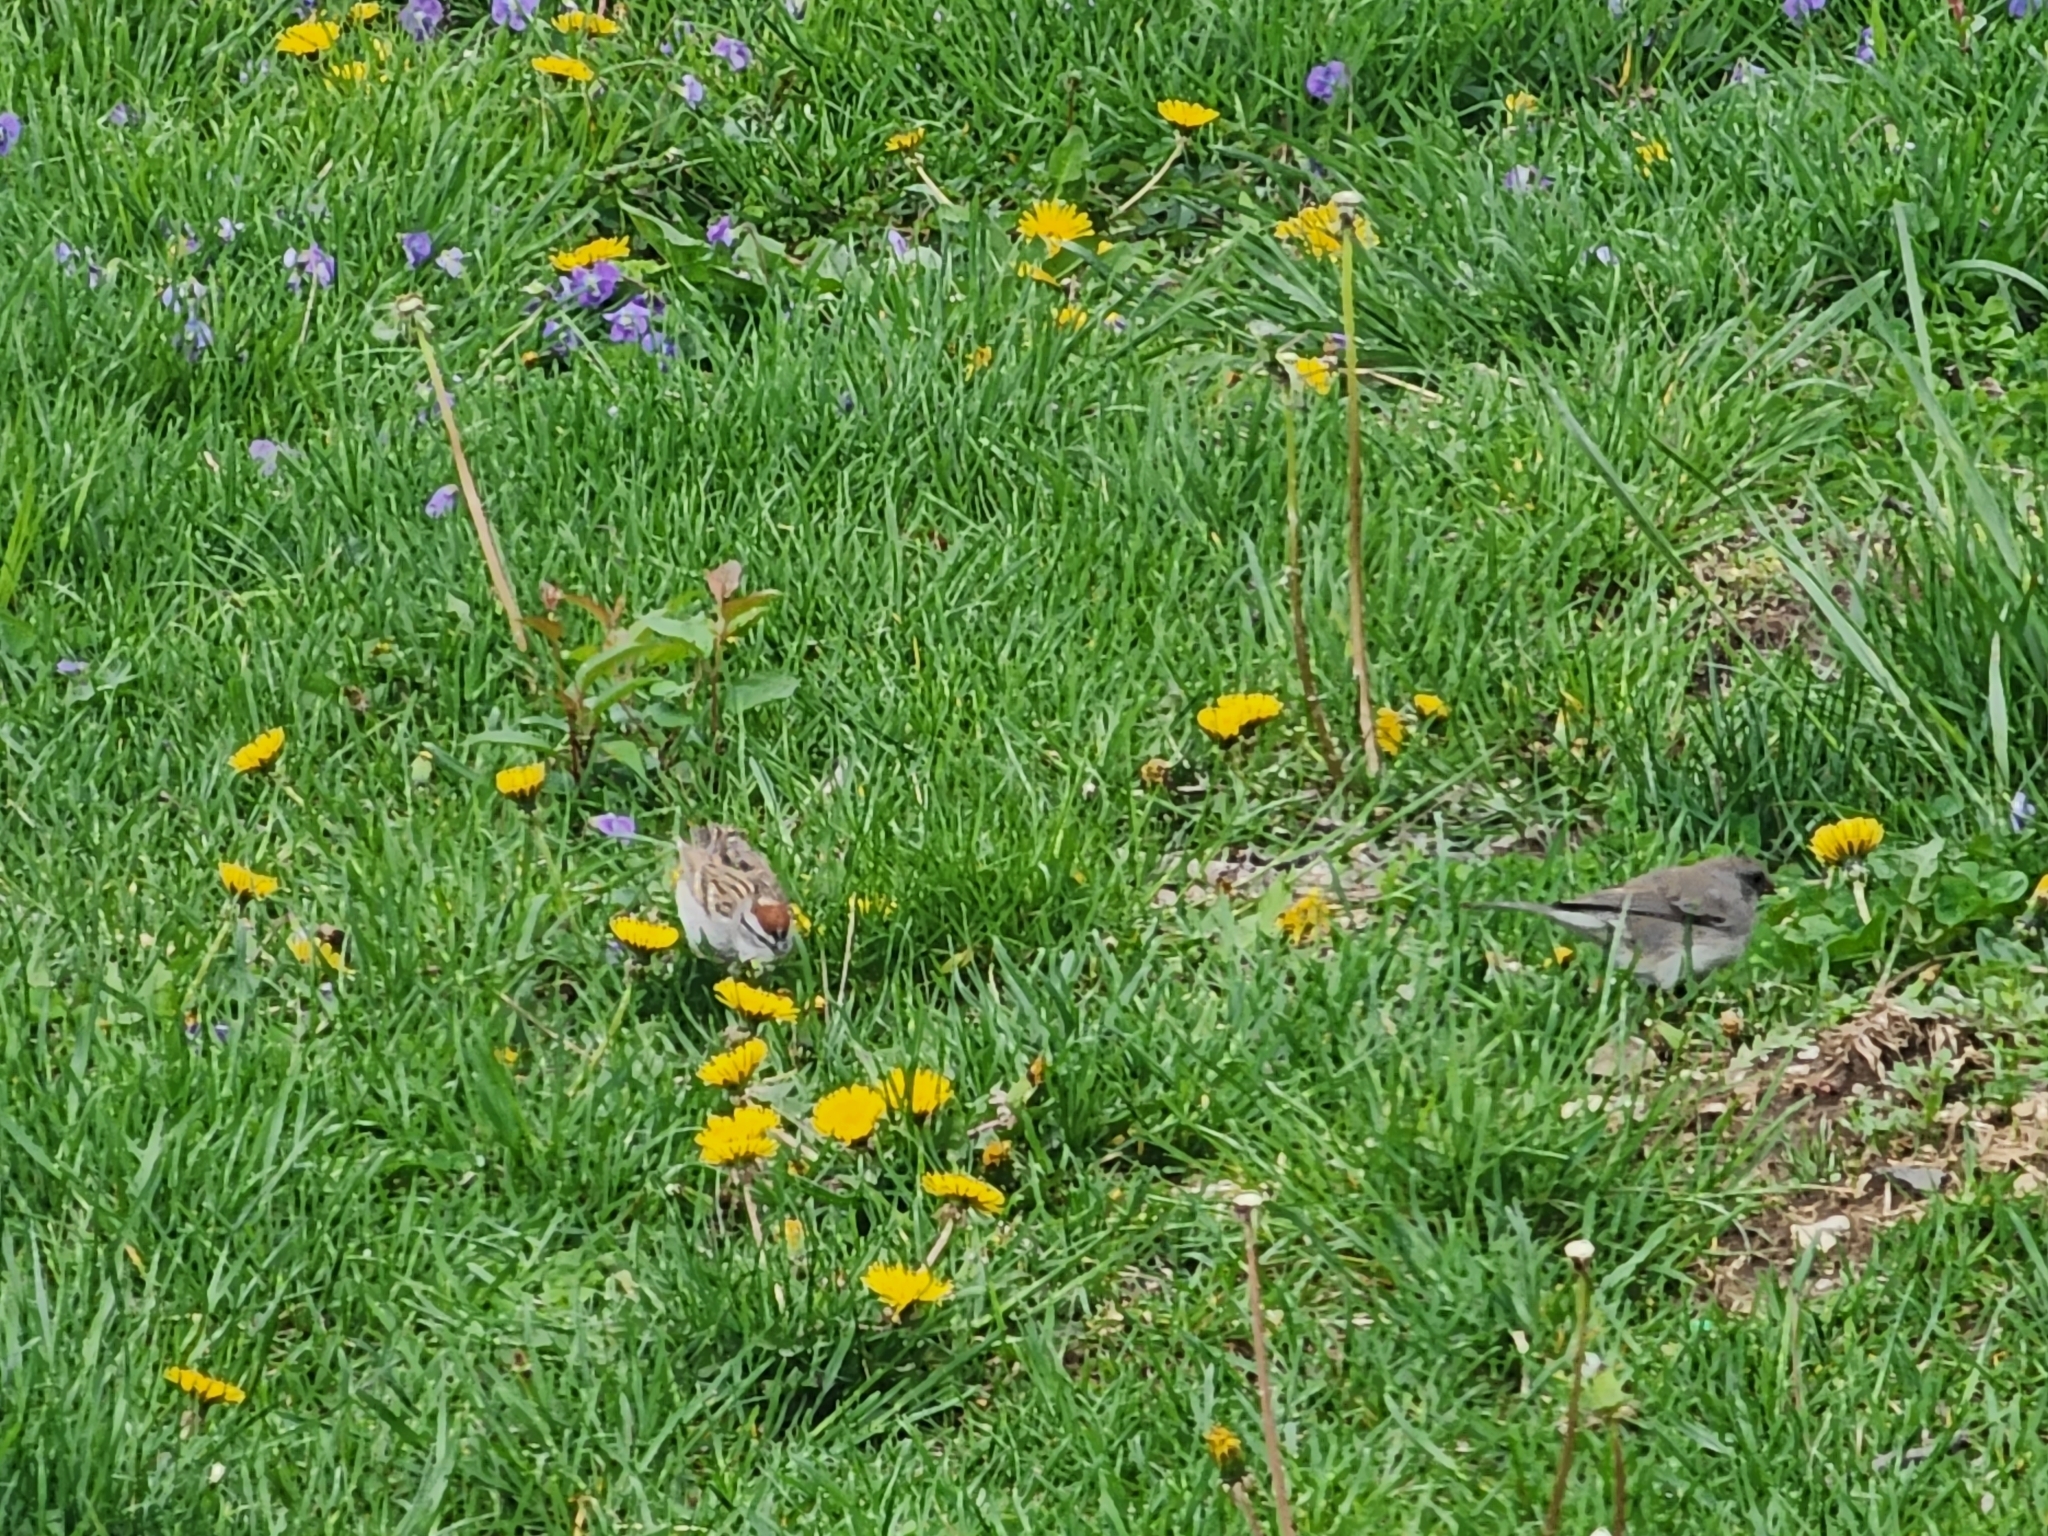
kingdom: Animalia
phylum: Chordata
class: Aves
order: Passeriformes
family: Passerellidae
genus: Junco
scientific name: Junco hyemalis
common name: Dark-eyed junco
